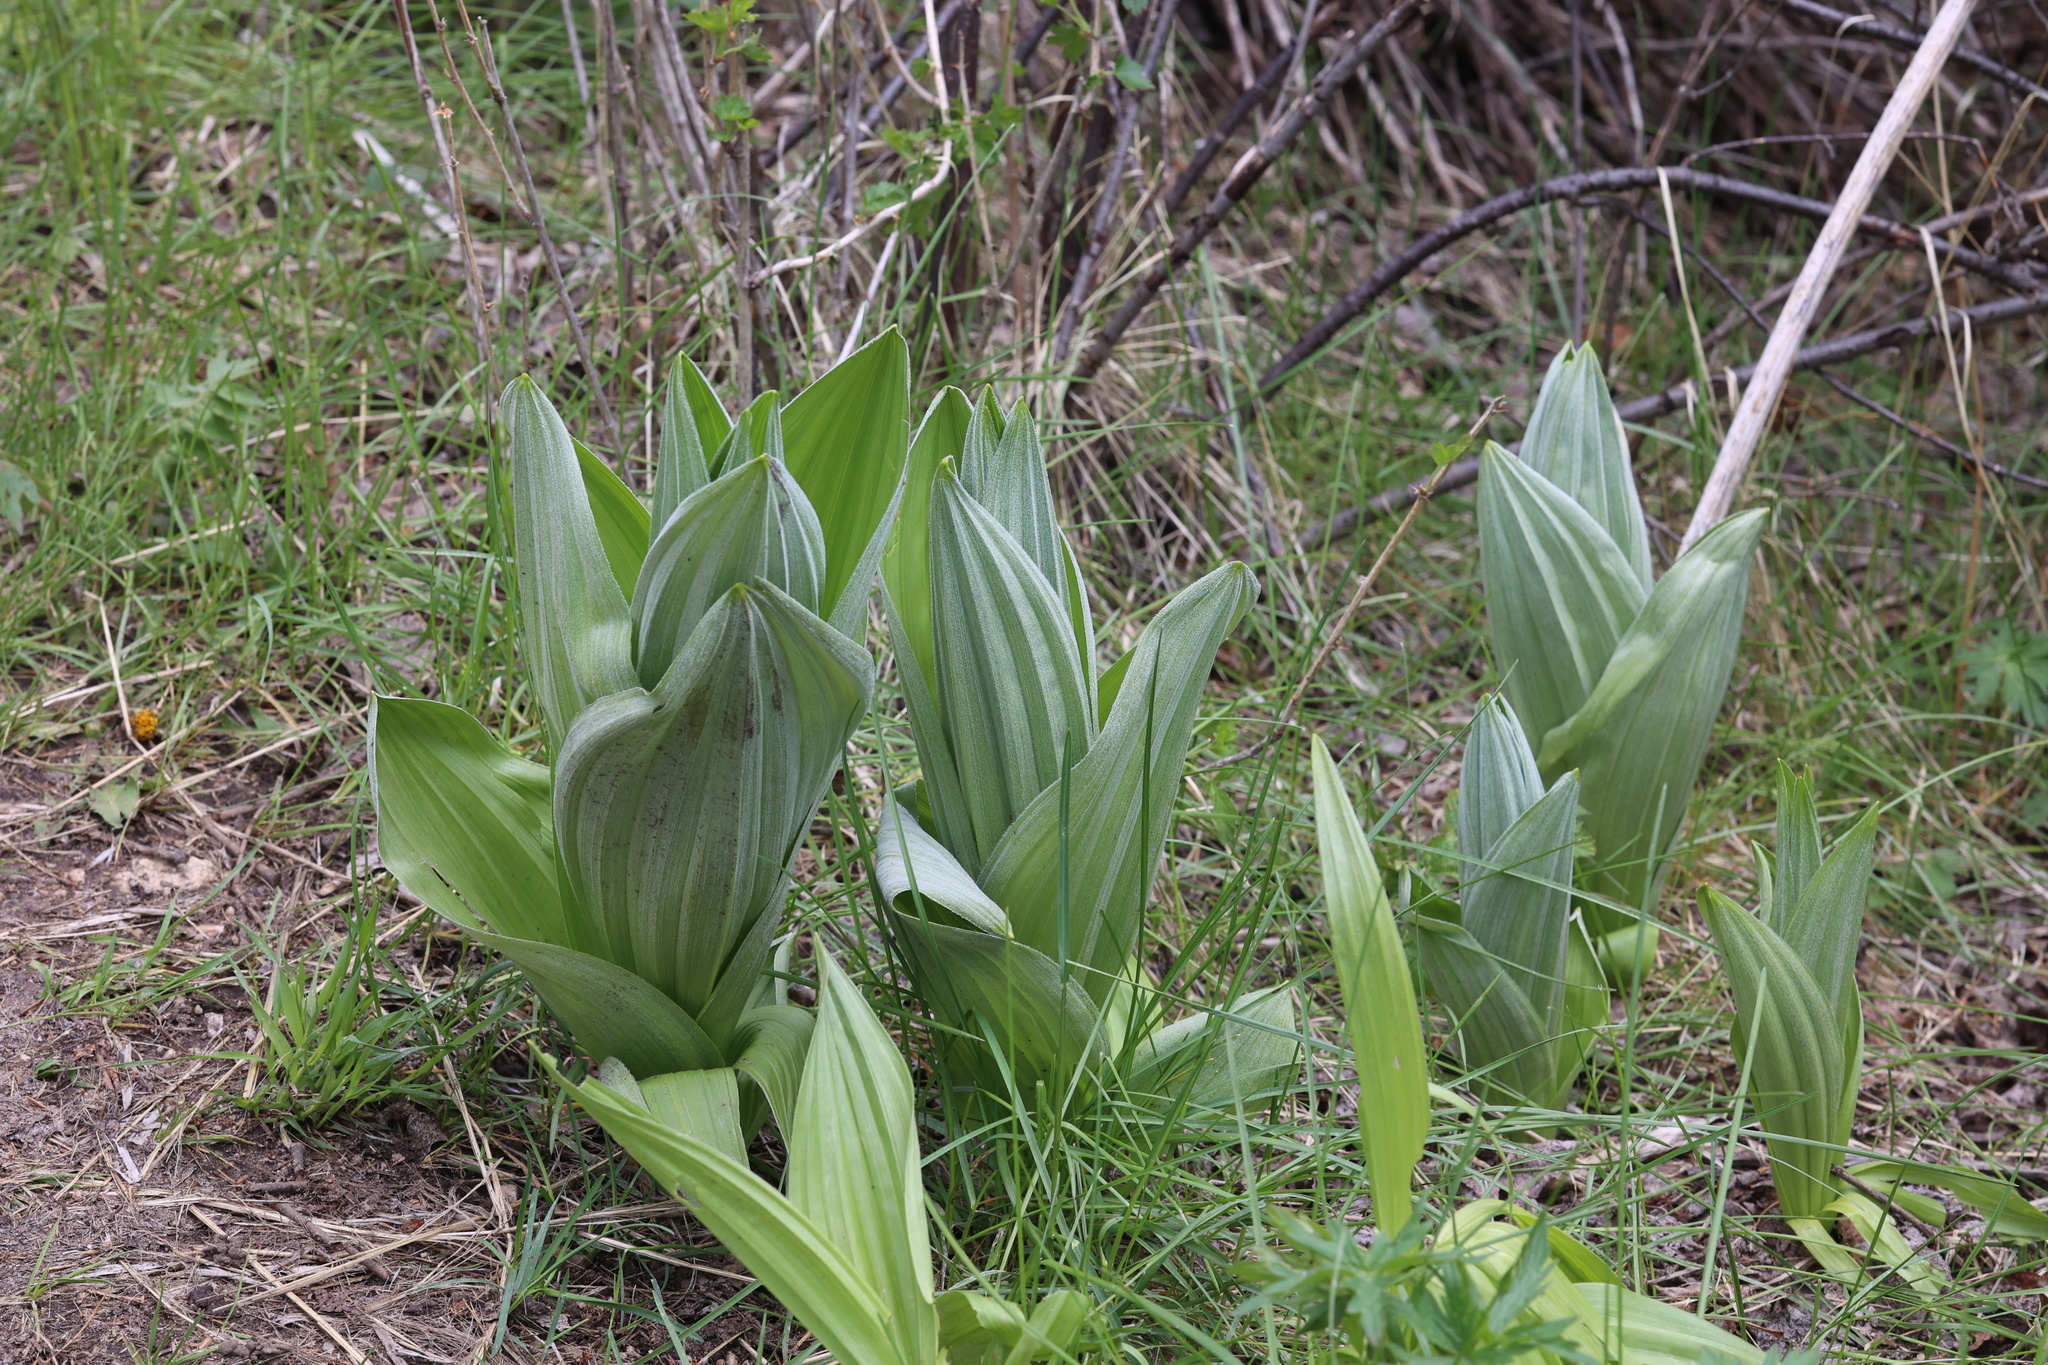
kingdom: Plantae
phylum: Tracheophyta
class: Liliopsida
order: Liliales
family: Melanthiaceae
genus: Veratrum
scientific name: Veratrum californicum
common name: California veratrum
